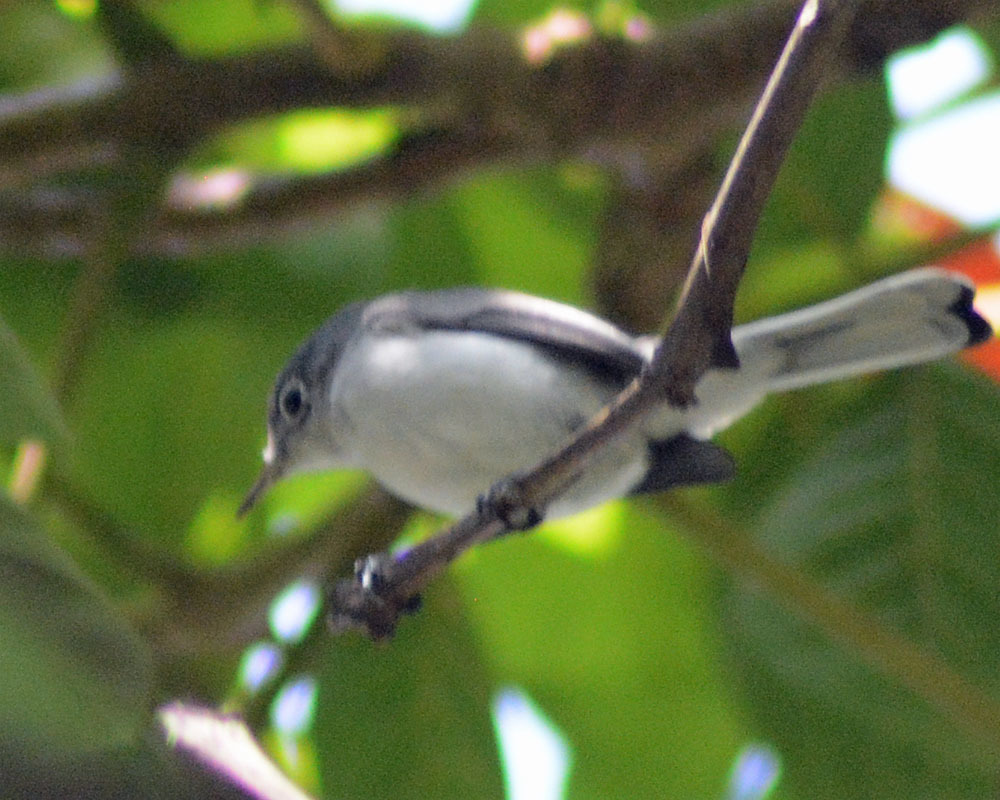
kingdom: Animalia
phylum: Chordata
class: Aves
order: Passeriformes
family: Polioptilidae
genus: Polioptila
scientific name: Polioptila caerulea
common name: Blue-gray gnatcatcher
